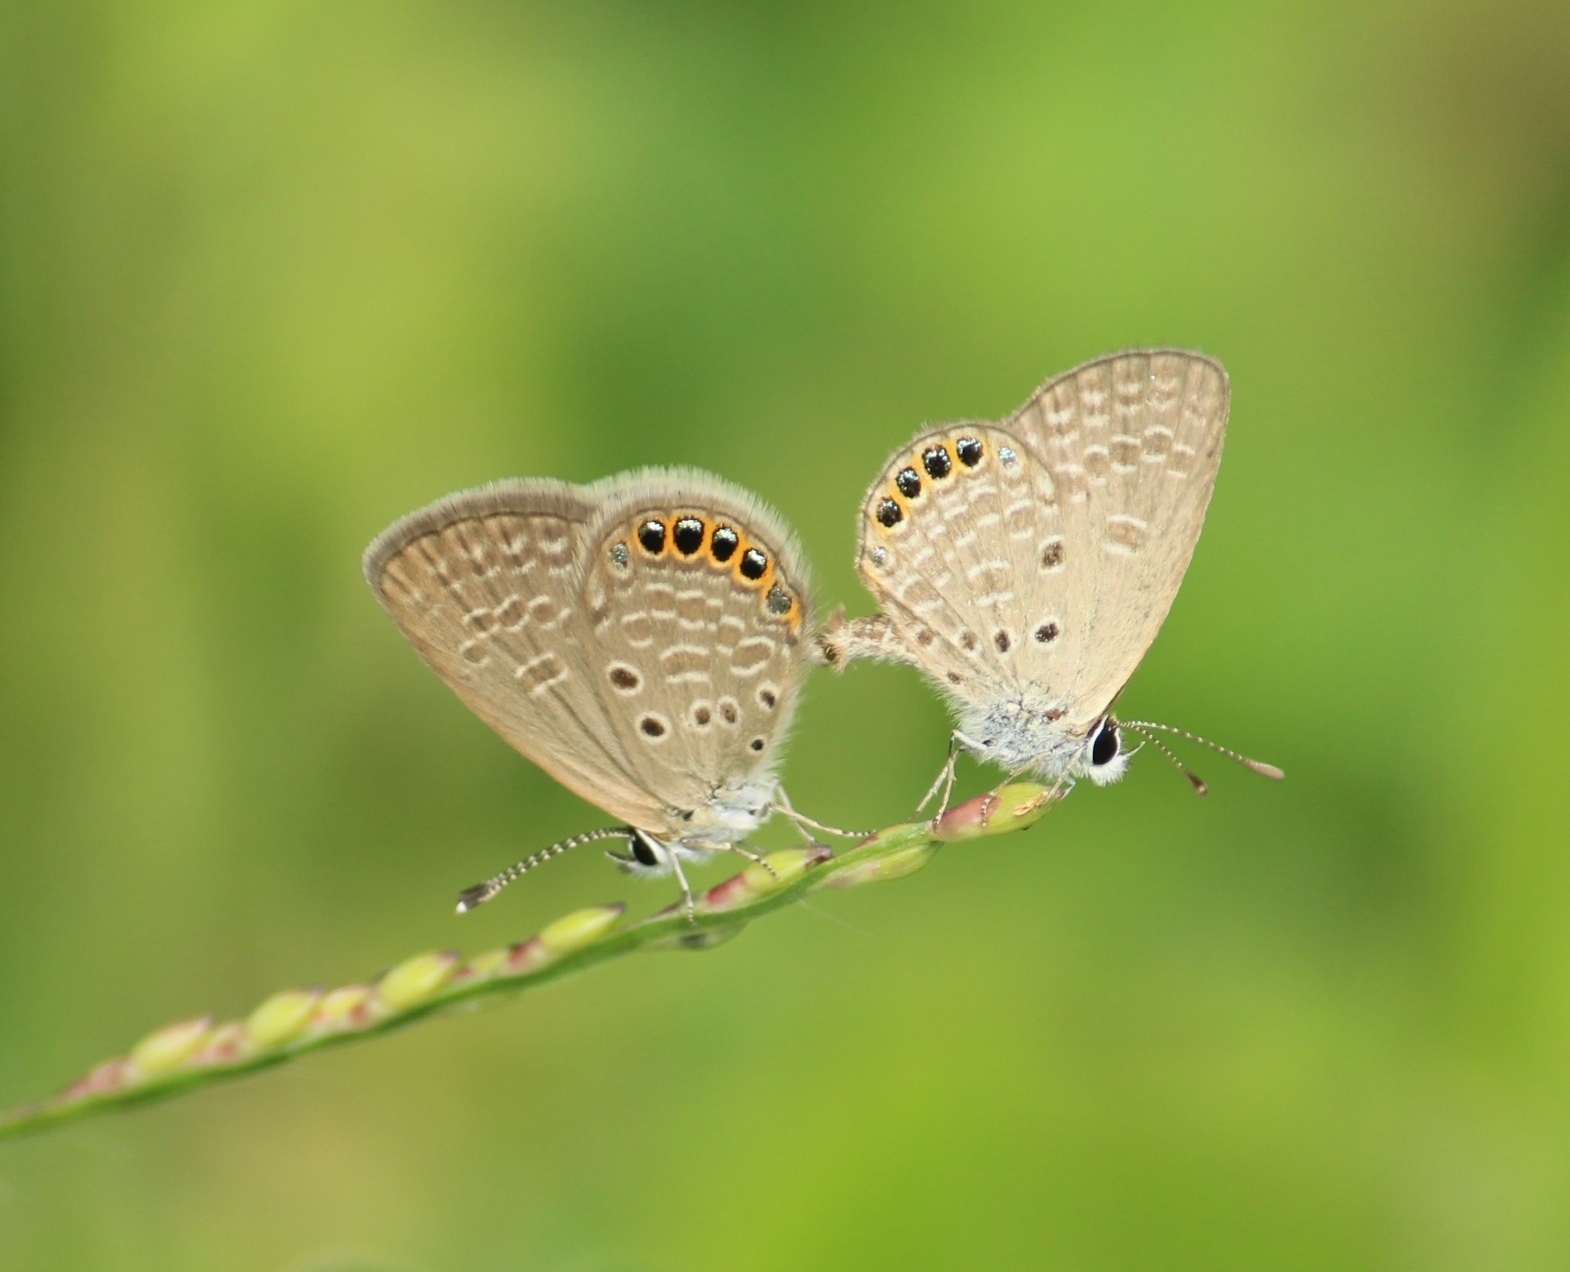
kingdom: Animalia
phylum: Arthropoda
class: Insecta
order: Lepidoptera
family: Lycaenidae
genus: Freyeria
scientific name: Freyeria putli
